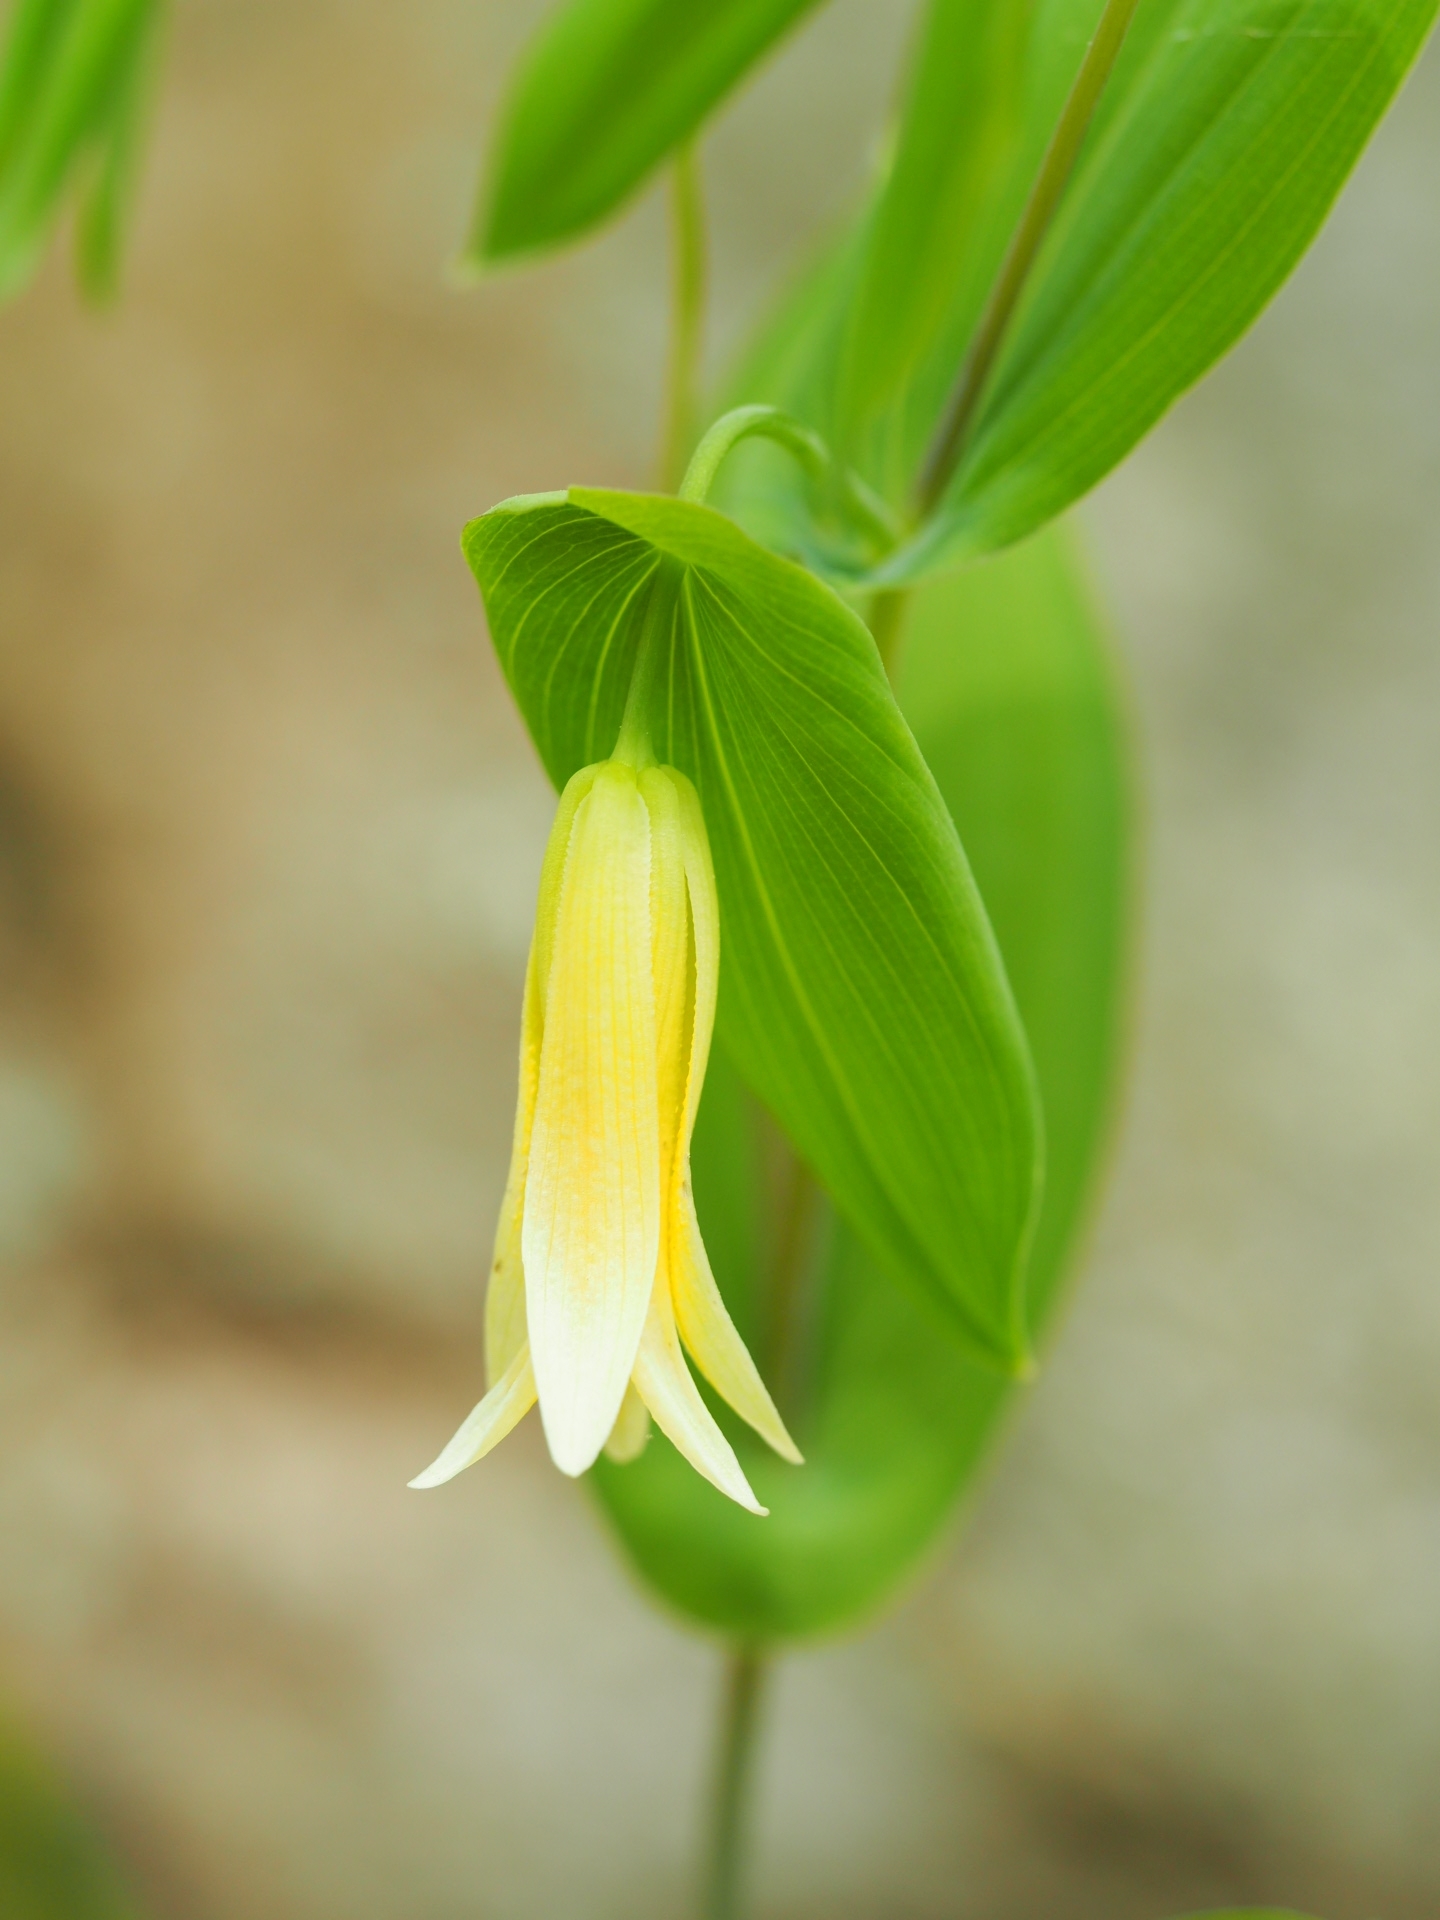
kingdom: Plantae
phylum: Tracheophyta
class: Liliopsida
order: Liliales
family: Colchicaceae
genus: Uvularia
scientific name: Uvularia perfoliata
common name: Perfoliate bellwort
